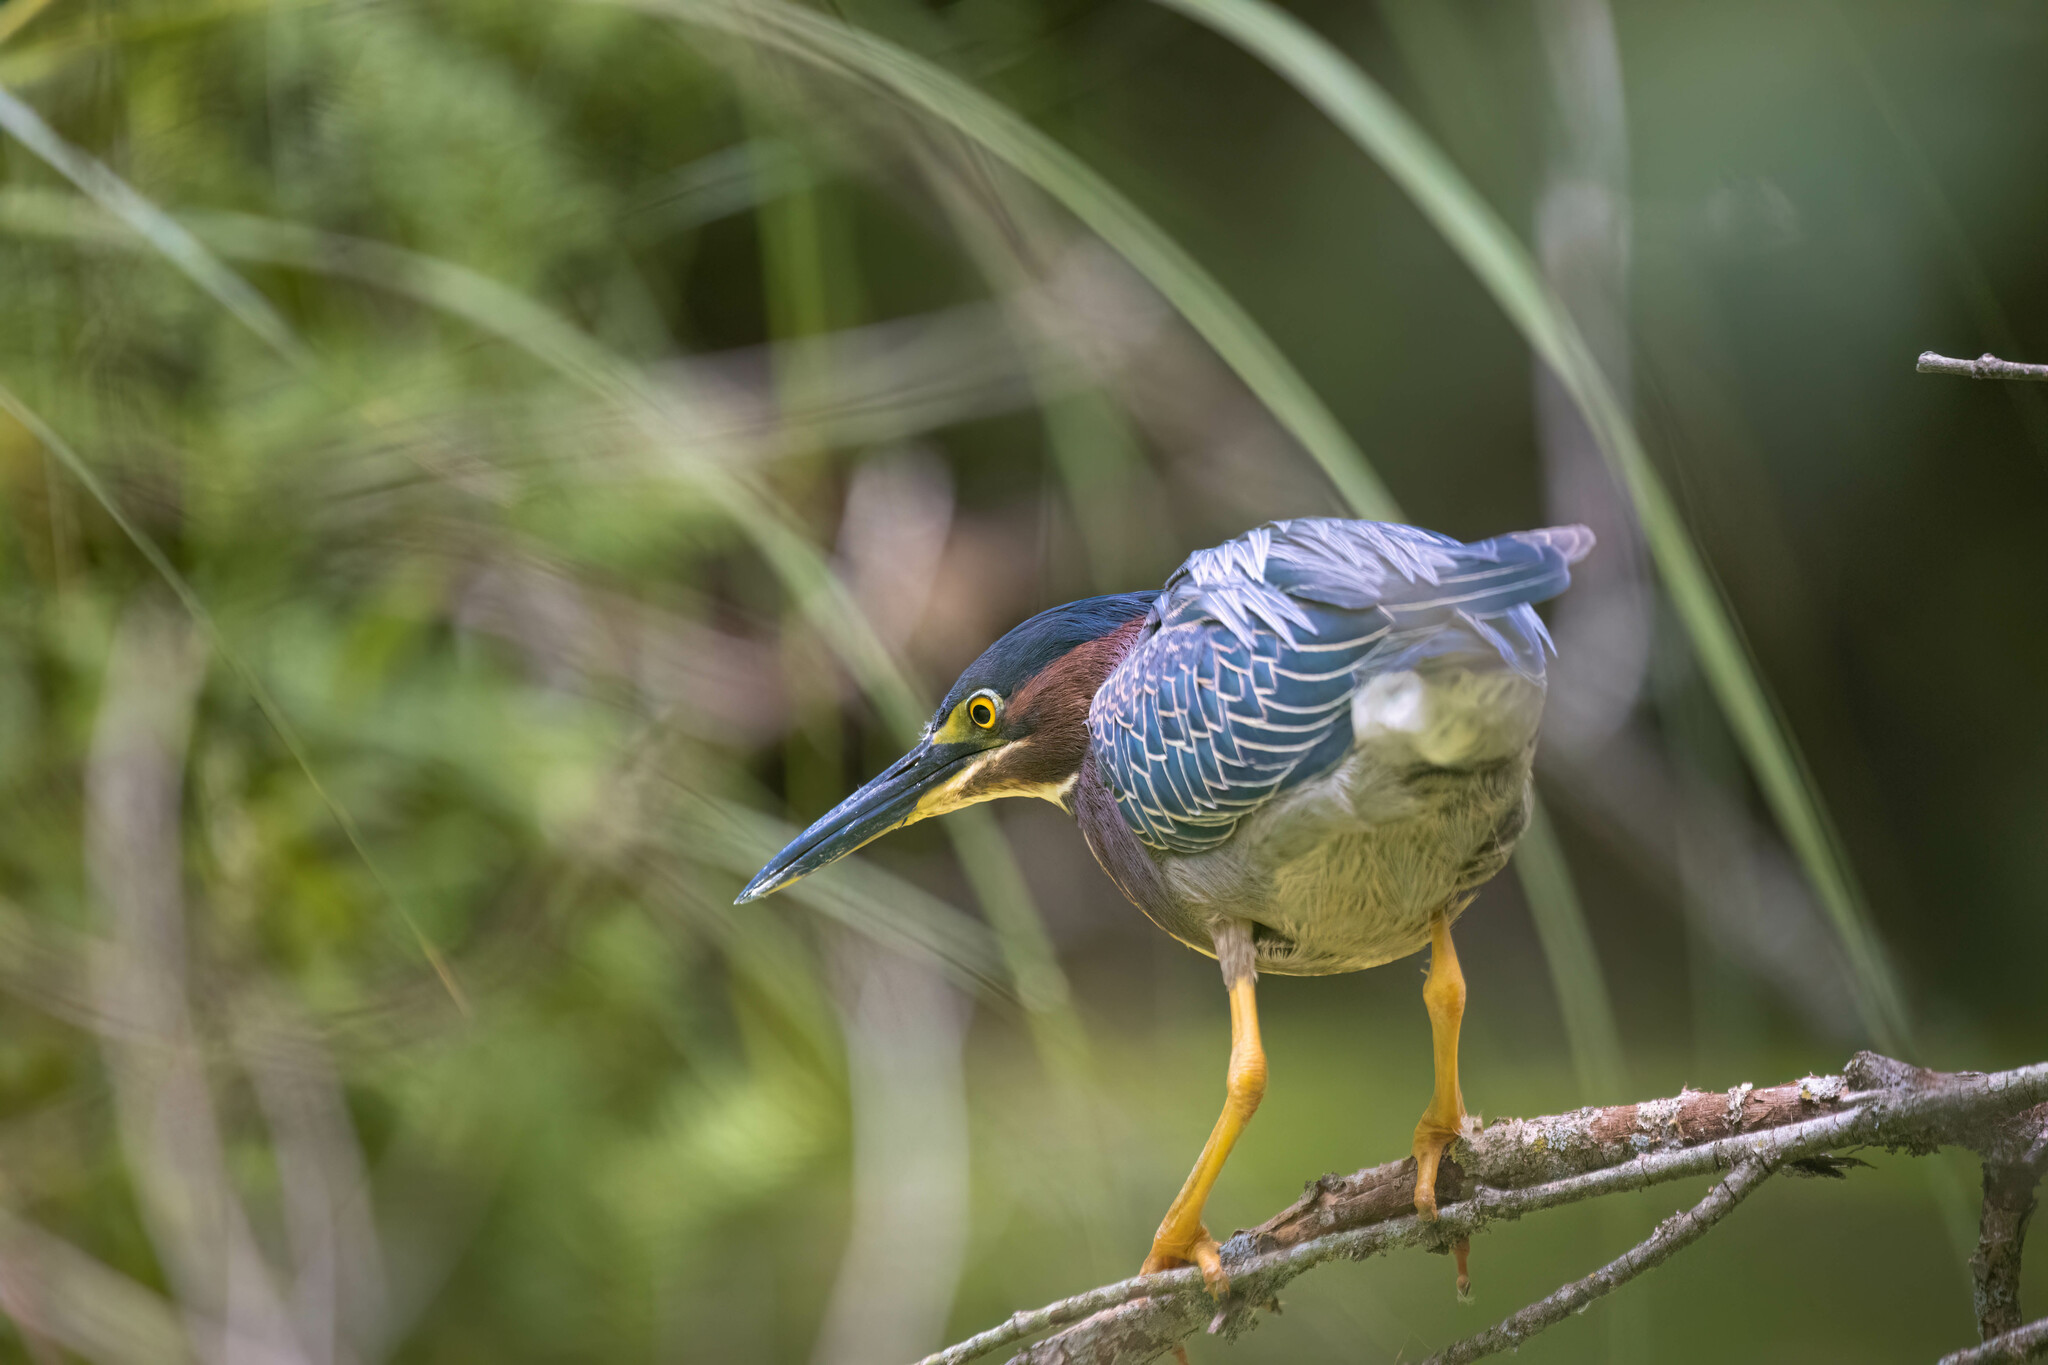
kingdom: Animalia
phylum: Chordata
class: Aves
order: Pelecaniformes
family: Ardeidae
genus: Butorides
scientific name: Butorides virescens
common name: Green heron
